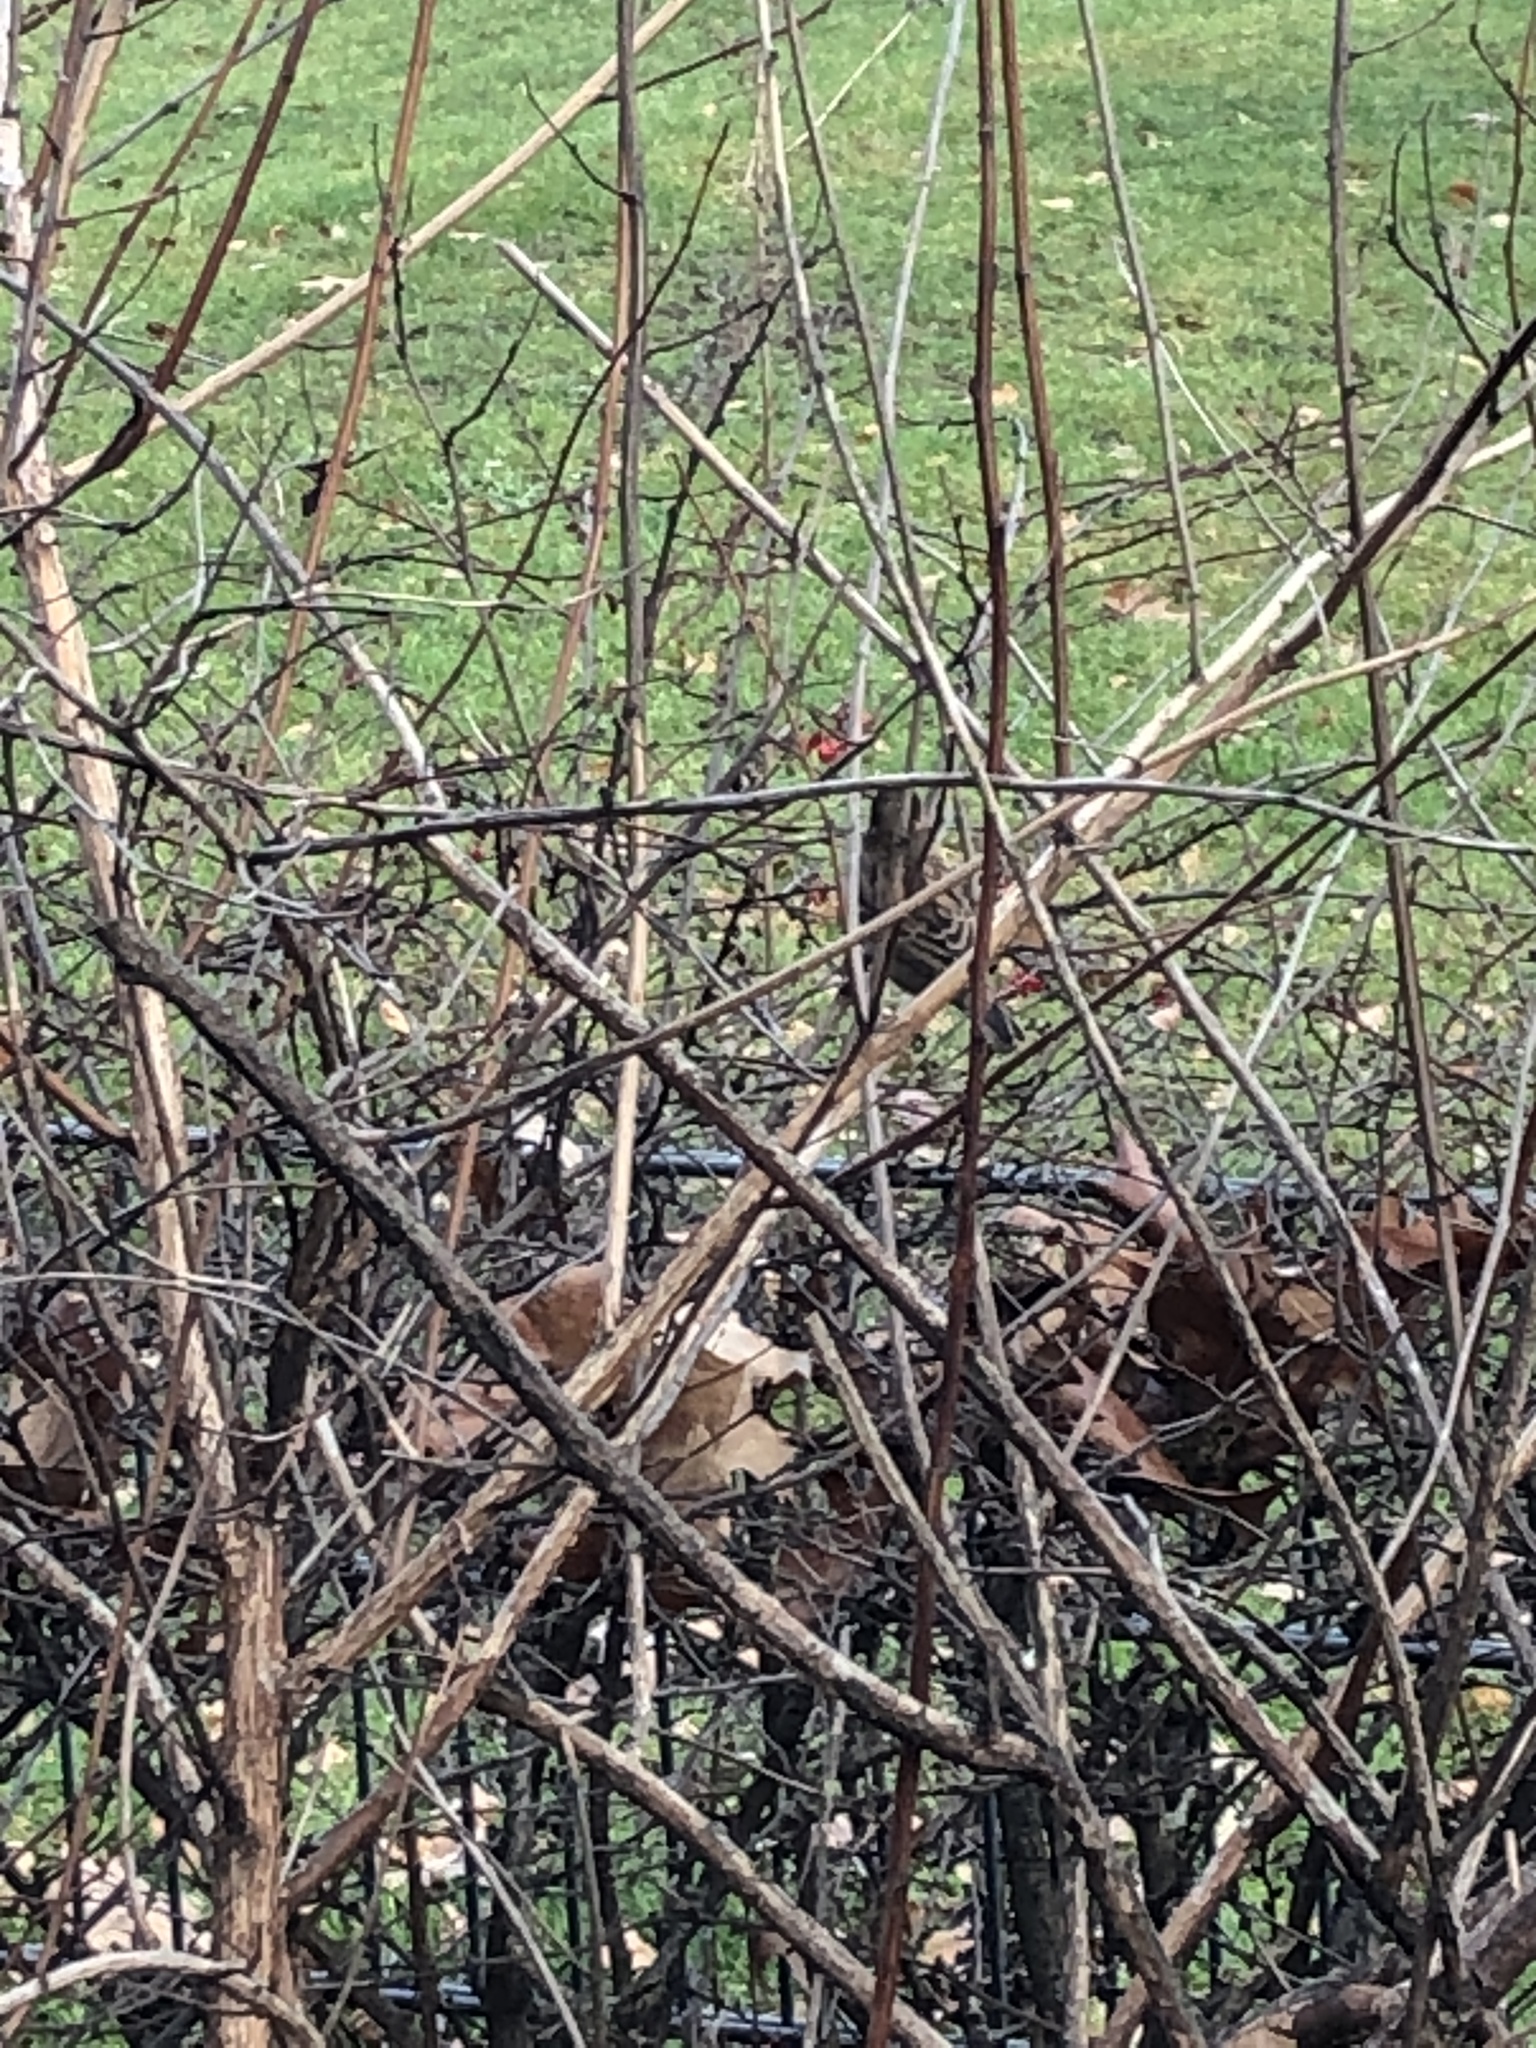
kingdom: Animalia
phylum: Chordata
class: Aves
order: Passeriformes
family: Passeridae
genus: Passer
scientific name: Passer domesticus
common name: House sparrow
